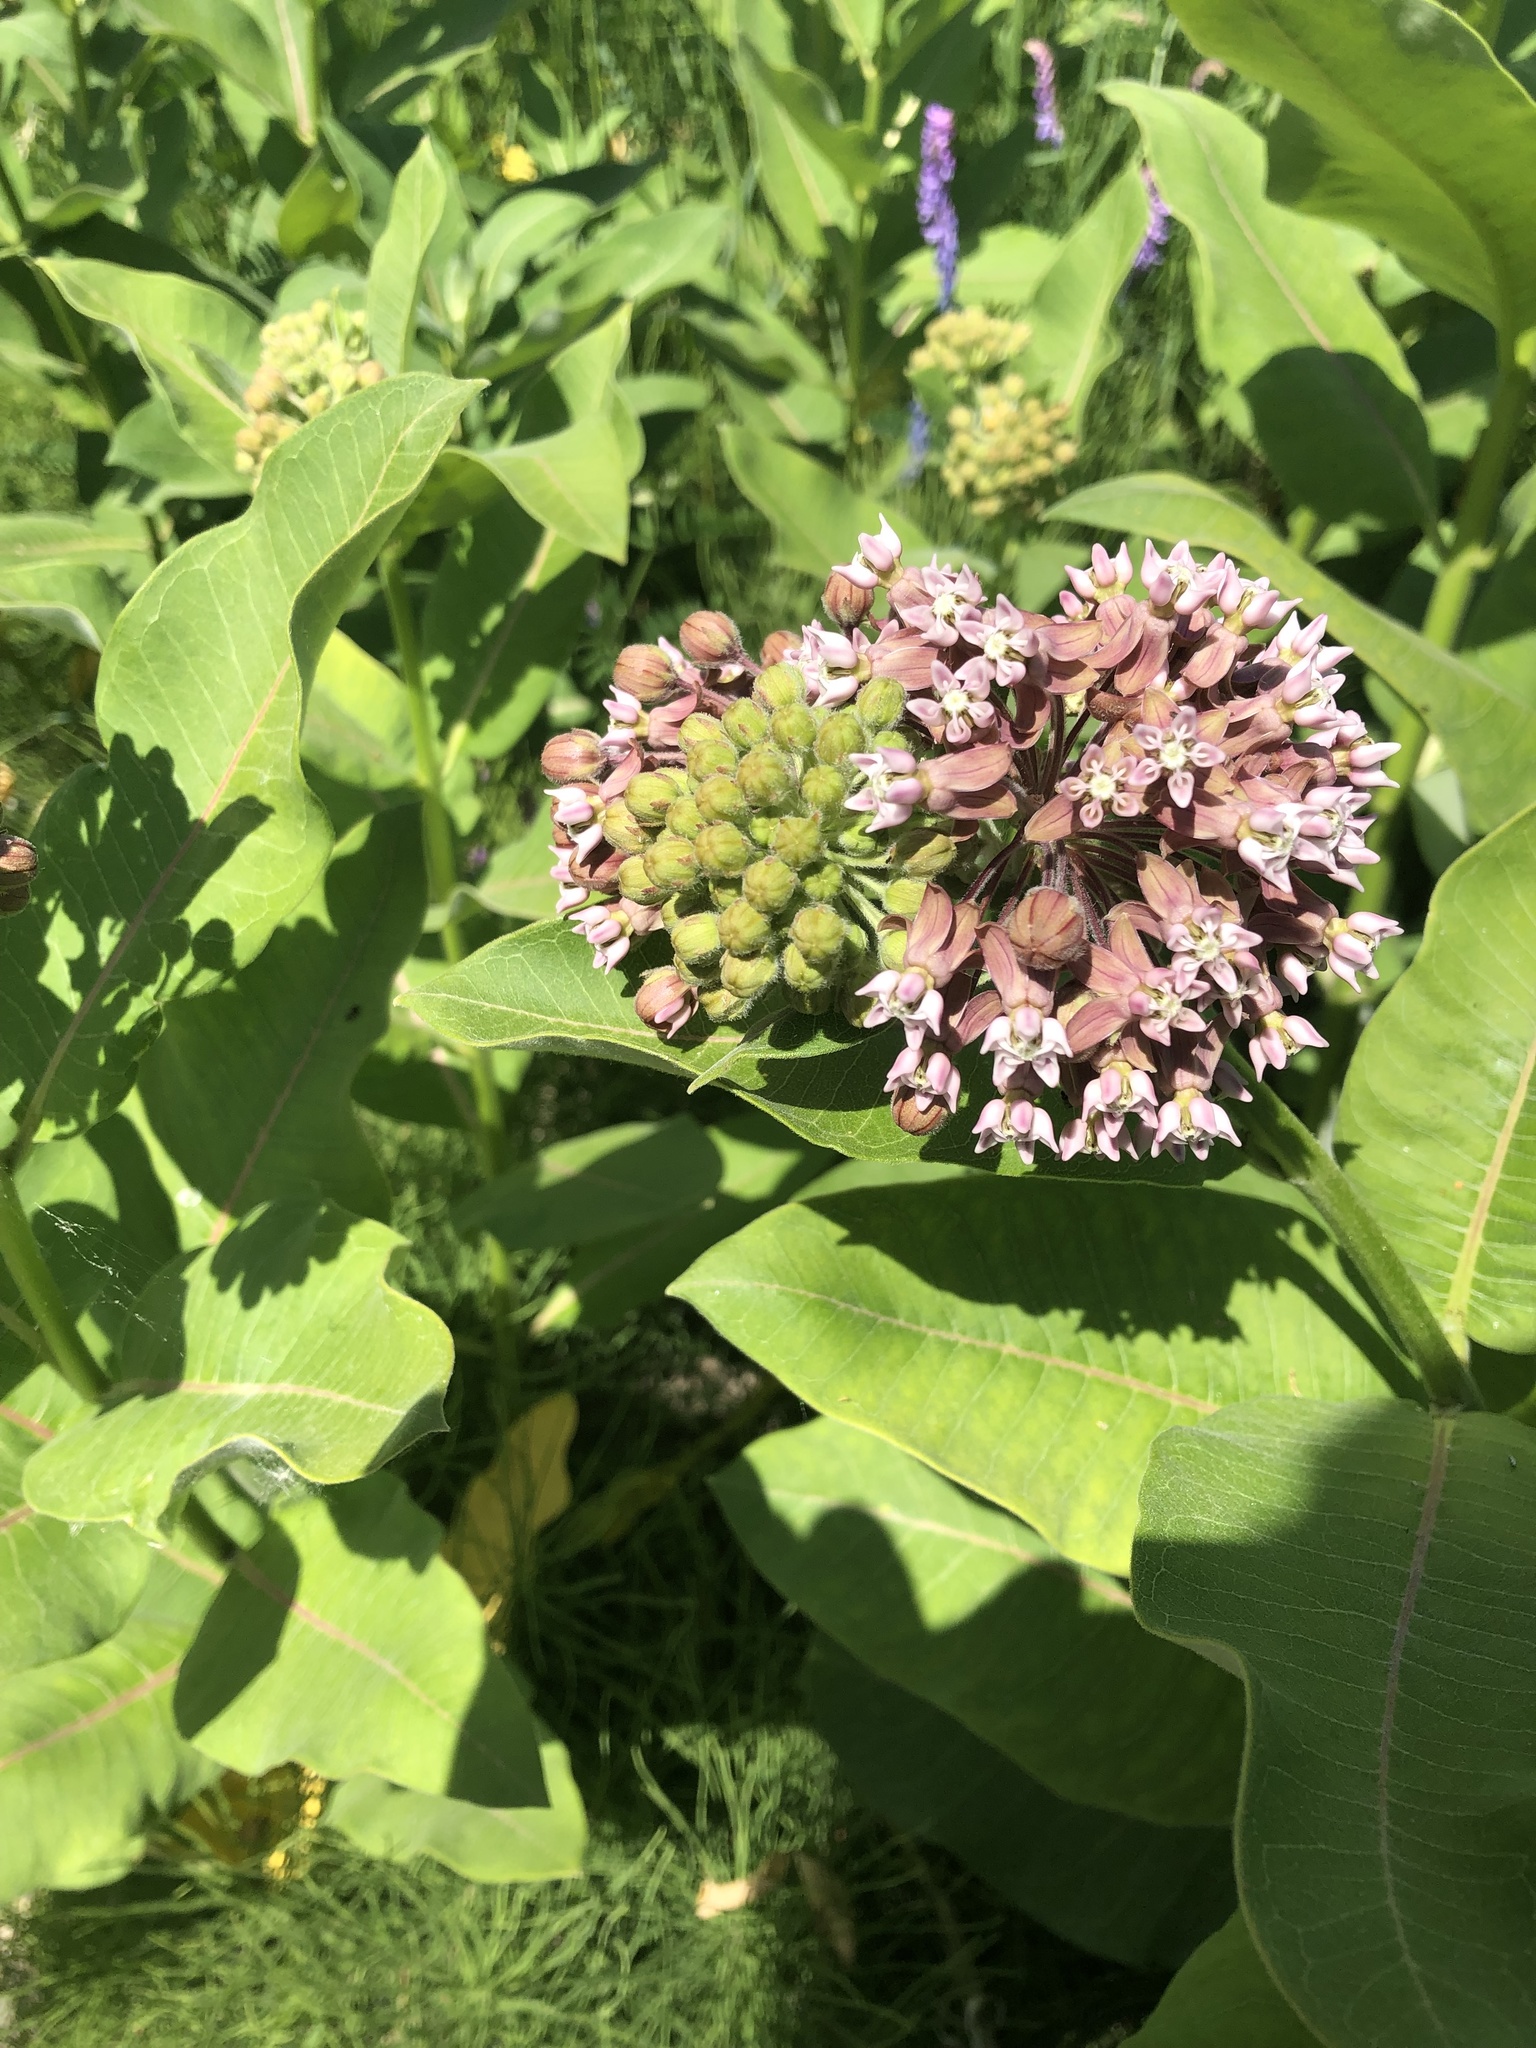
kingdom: Plantae
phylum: Tracheophyta
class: Magnoliopsida
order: Gentianales
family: Apocynaceae
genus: Asclepias
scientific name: Asclepias syriaca
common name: Common milkweed
